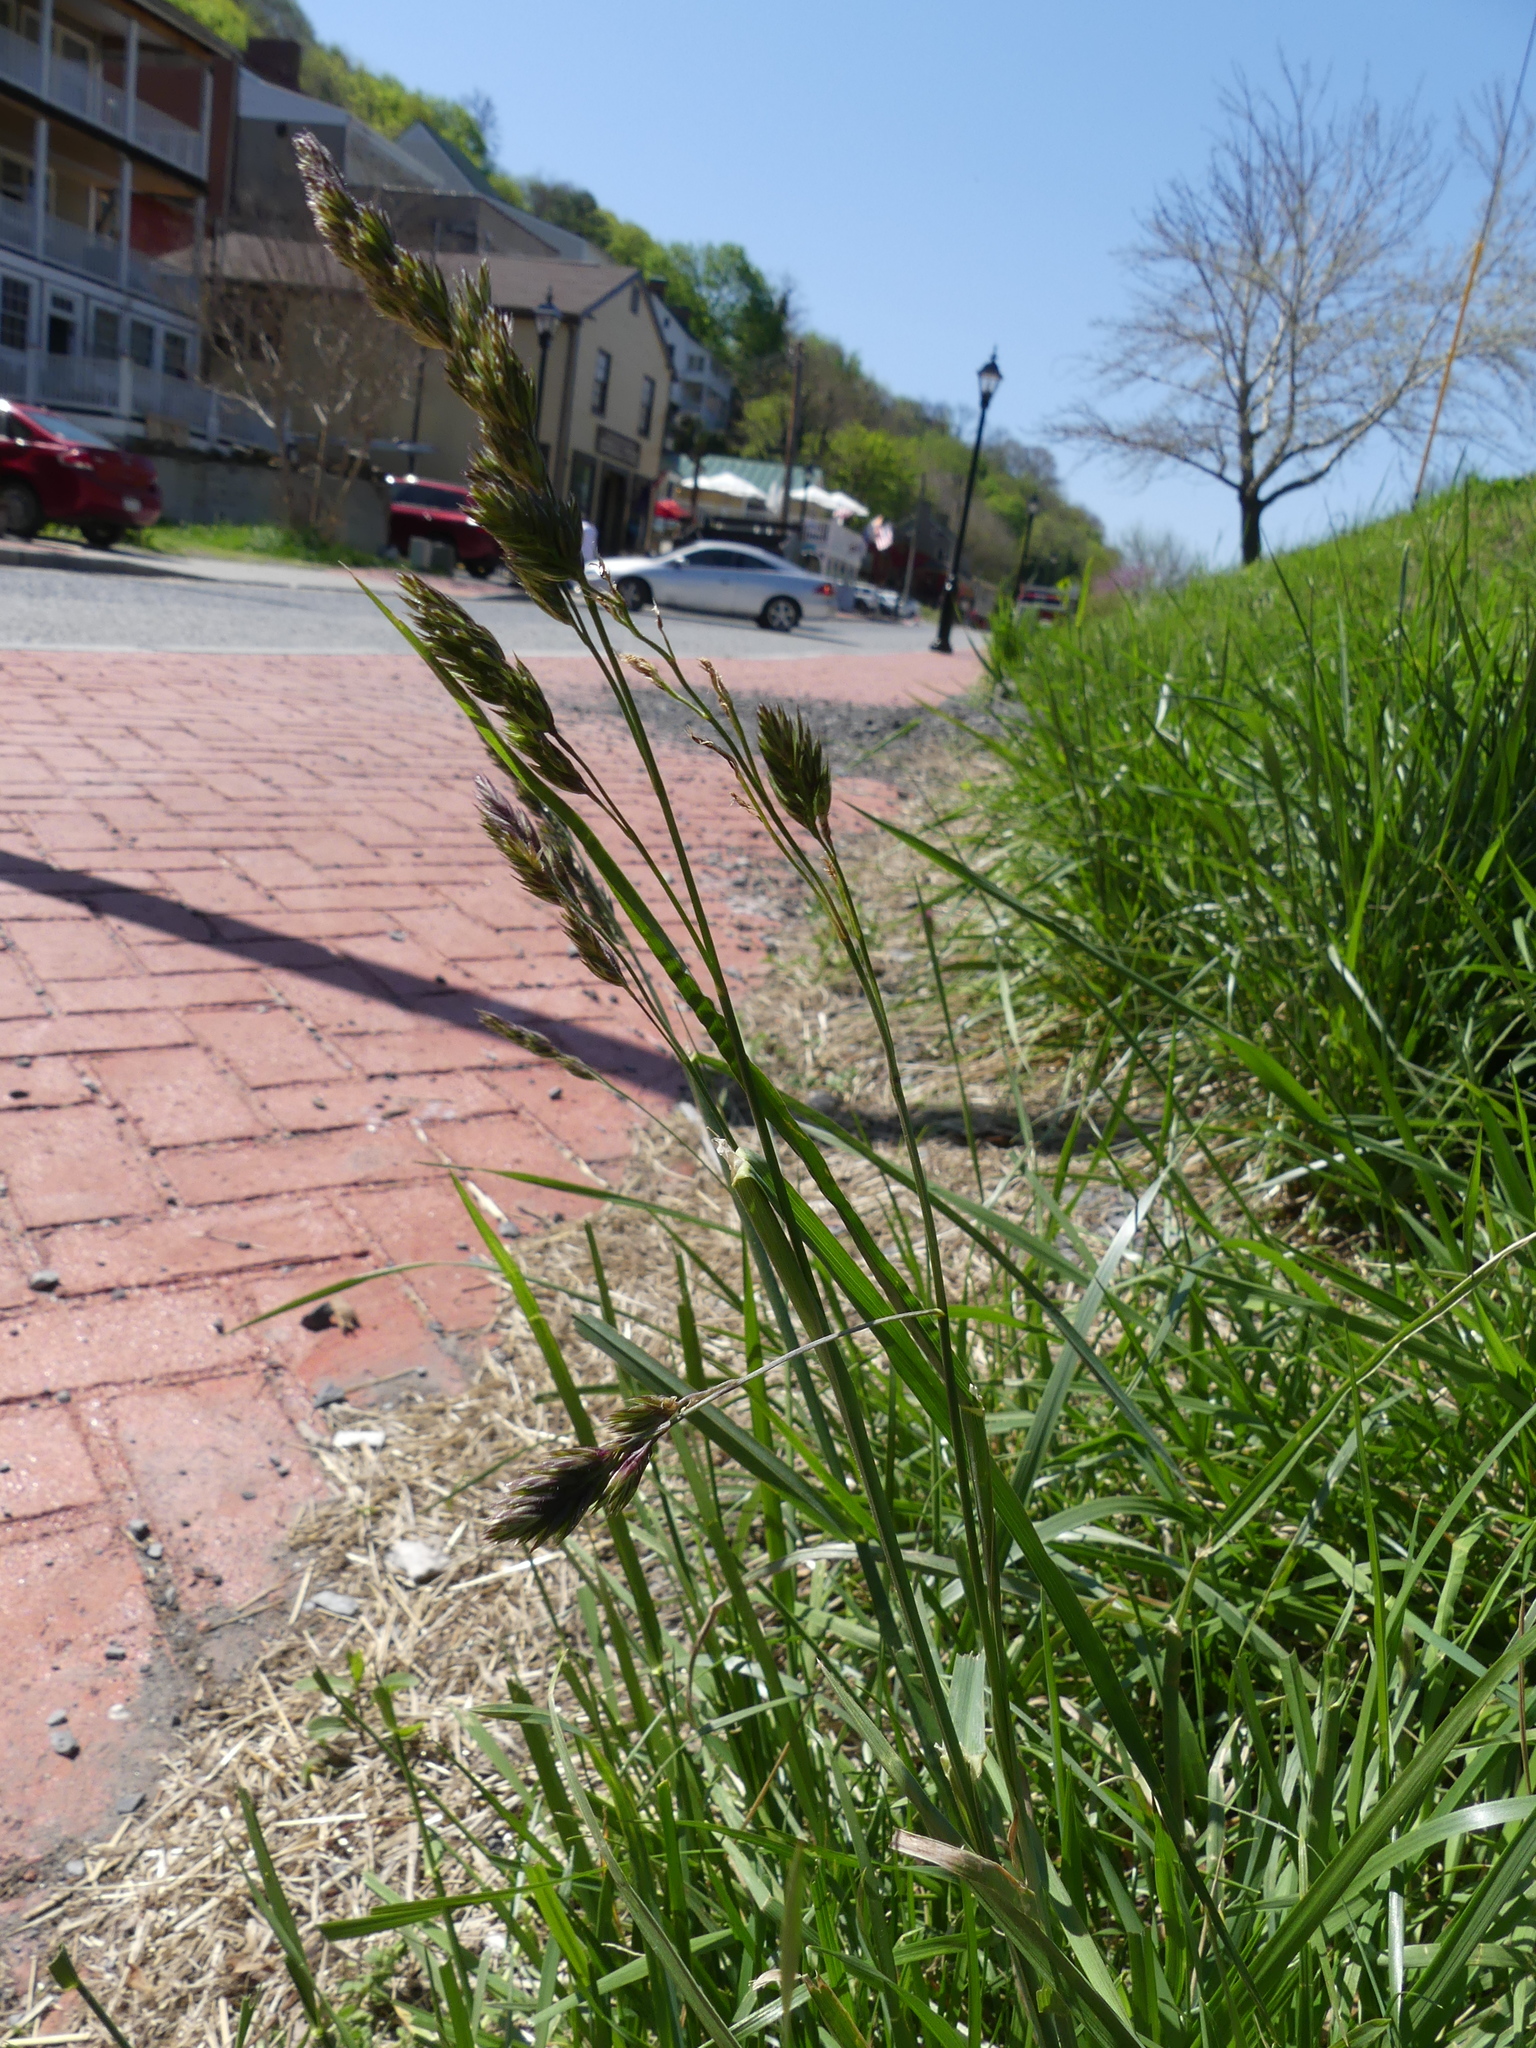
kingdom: Plantae
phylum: Tracheophyta
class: Liliopsida
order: Poales
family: Poaceae
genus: Anthoxanthum
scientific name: Anthoxanthum odoratum
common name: Sweet vernalgrass
